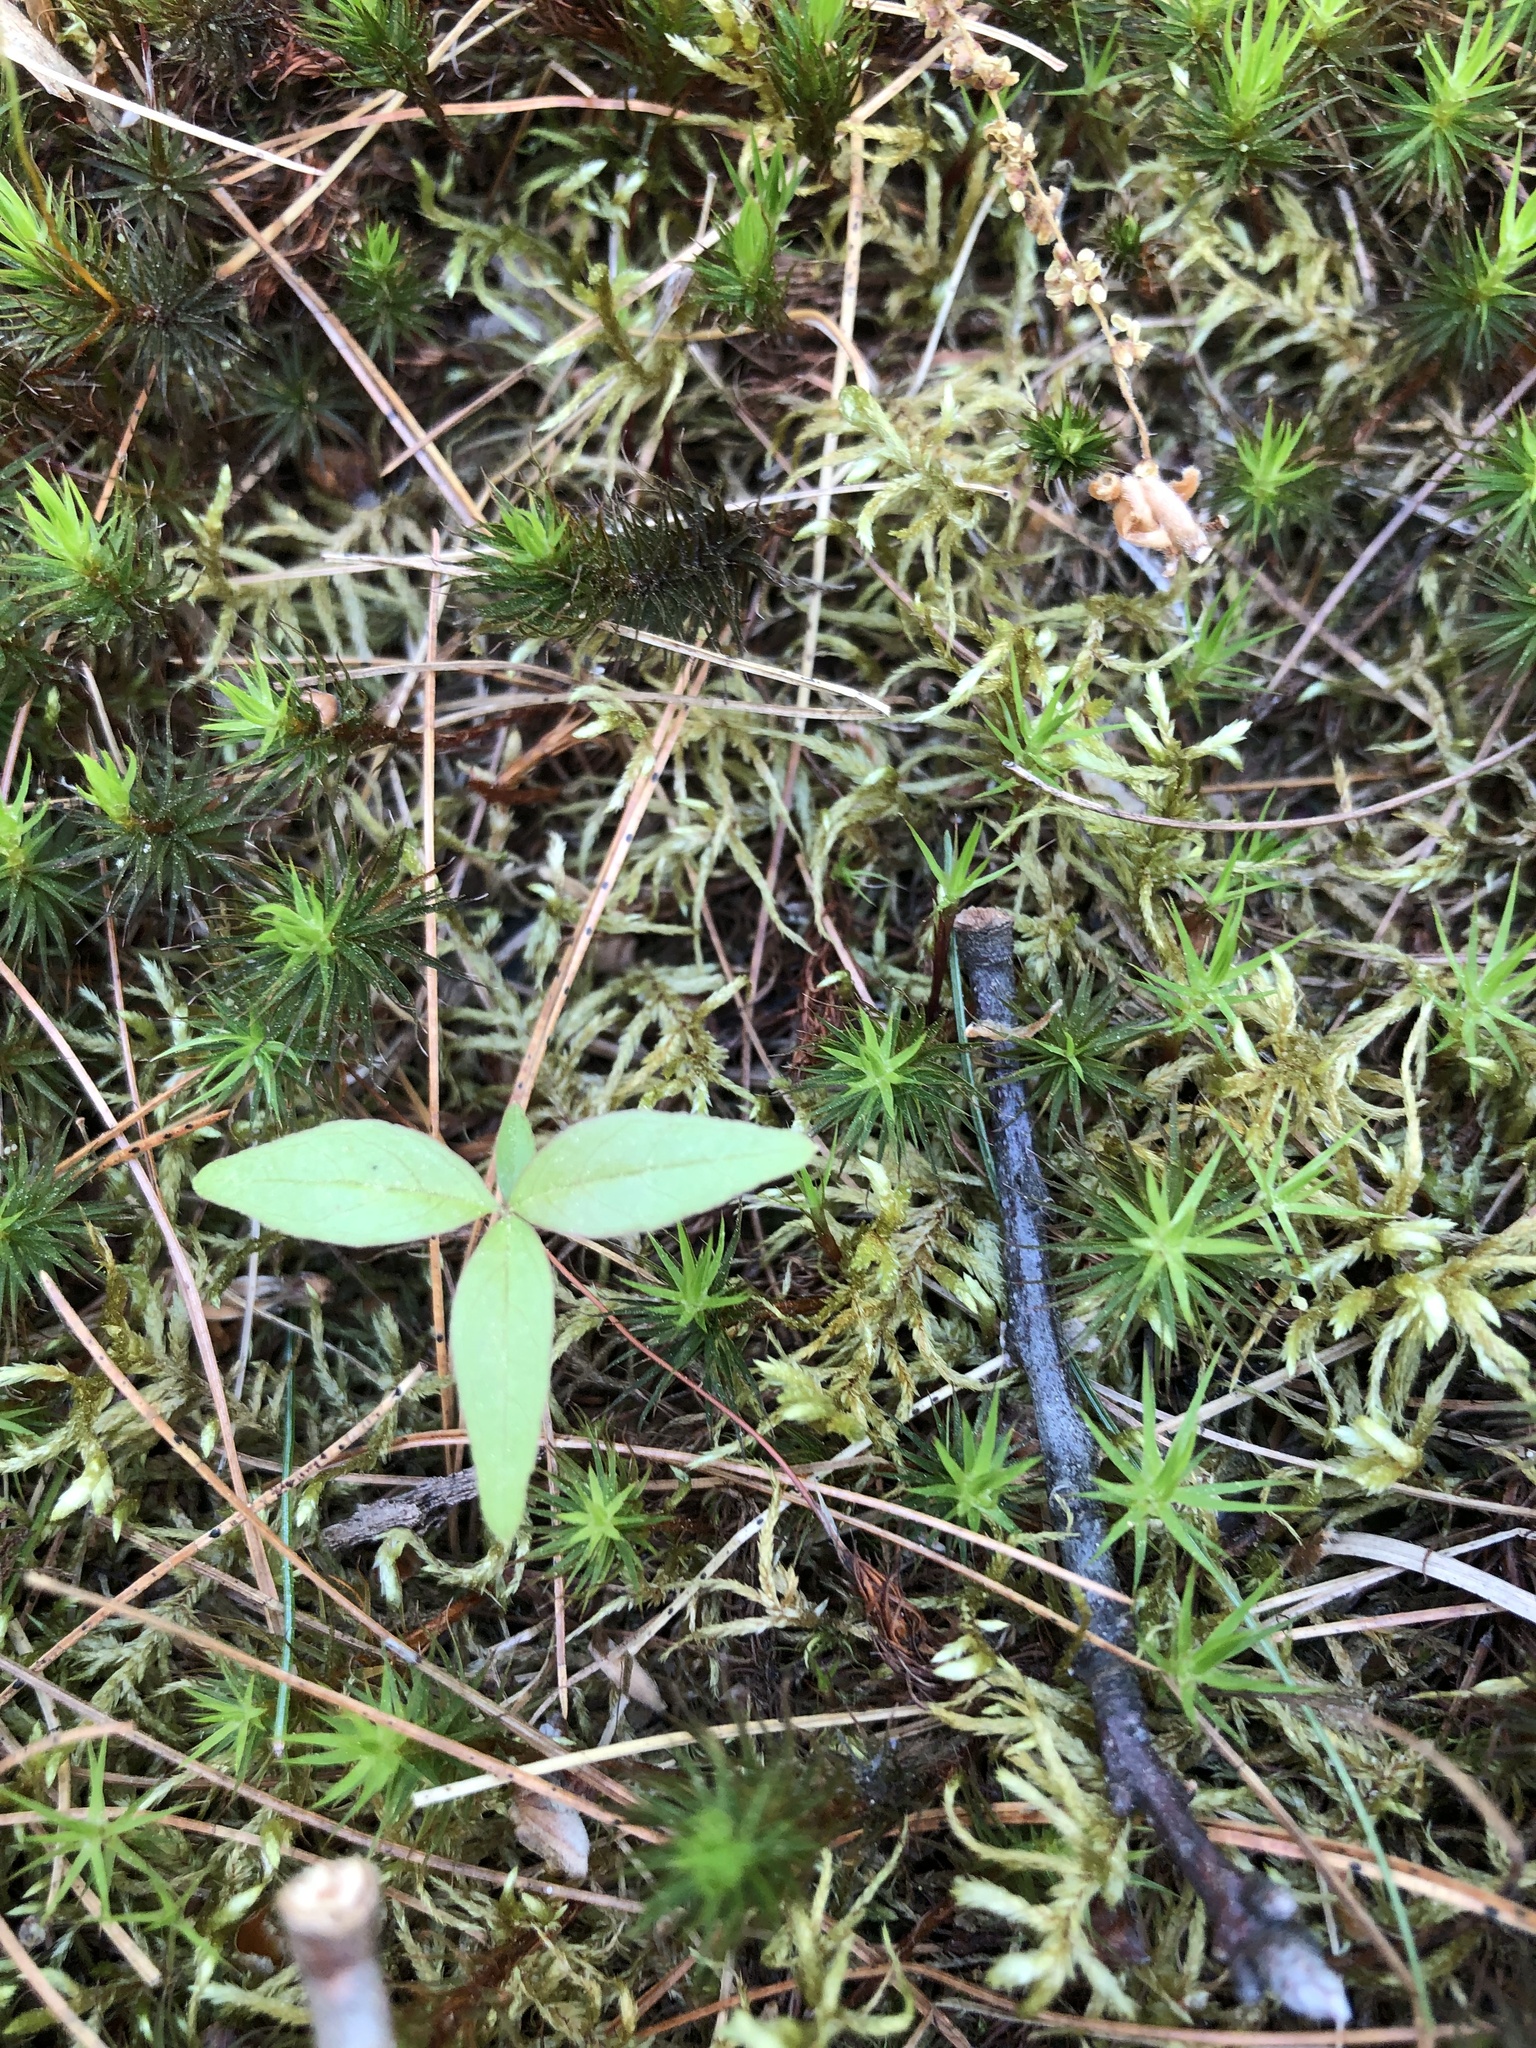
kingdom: Plantae
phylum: Tracheophyta
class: Magnoliopsida
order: Ericales
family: Primulaceae
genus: Lysimachia
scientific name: Lysimachia borealis
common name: American starflower
